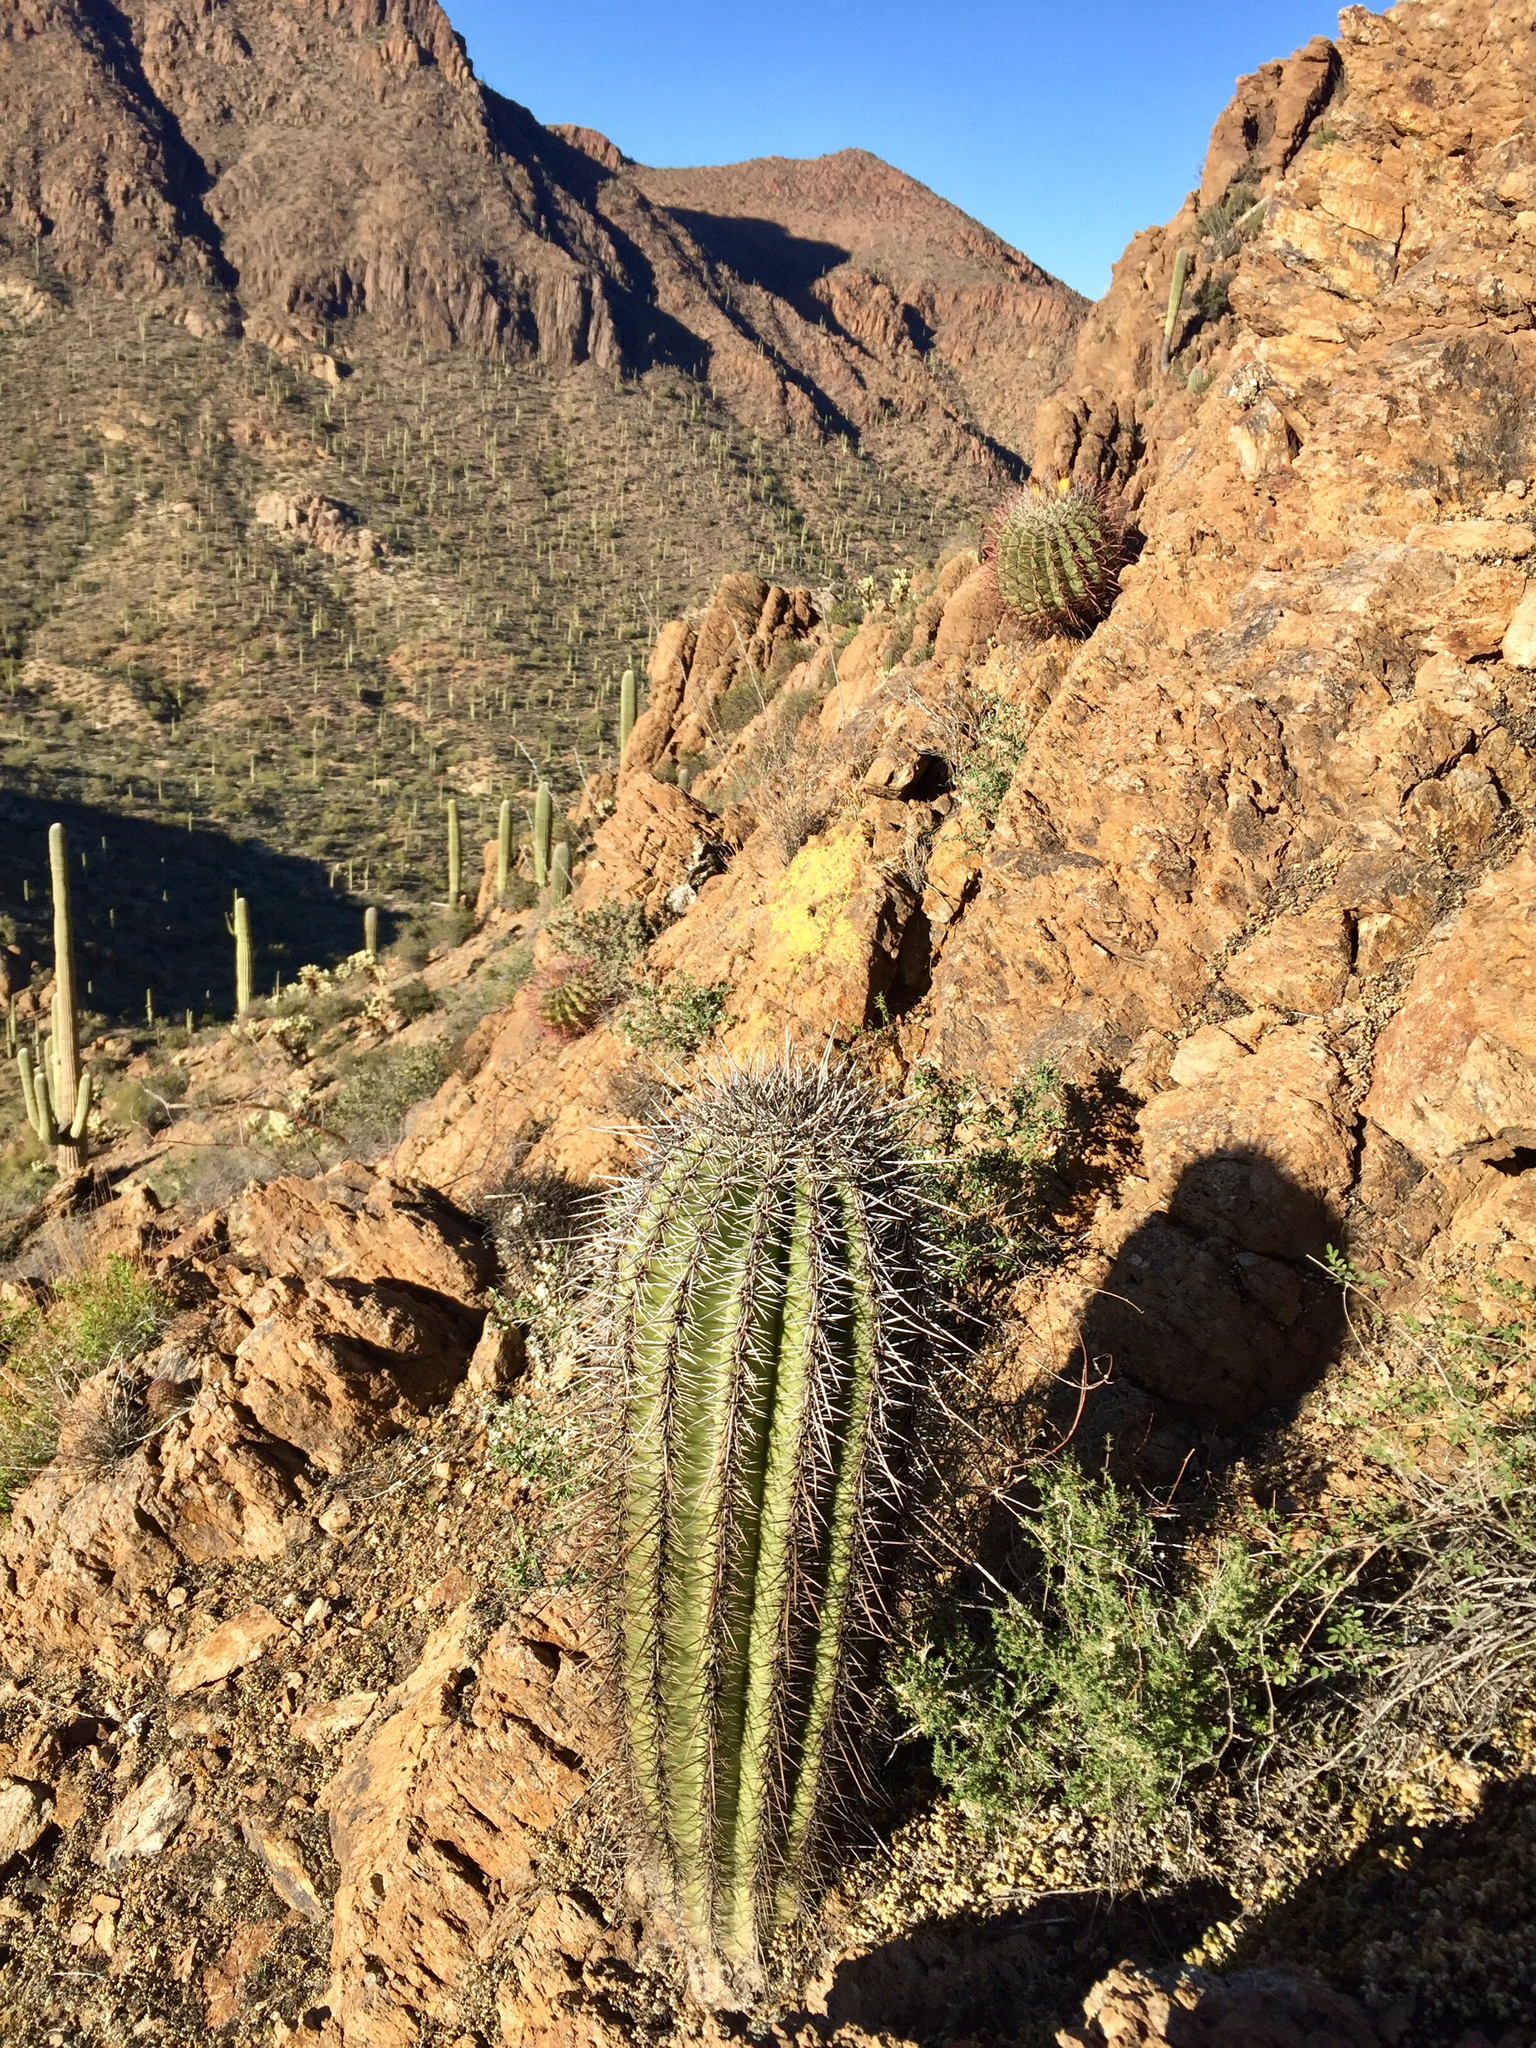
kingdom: Plantae
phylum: Tracheophyta
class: Magnoliopsida
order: Caryophyllales
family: Cactaceae
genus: Carnegiea
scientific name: Carnegiea gigantea
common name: Saguaro
